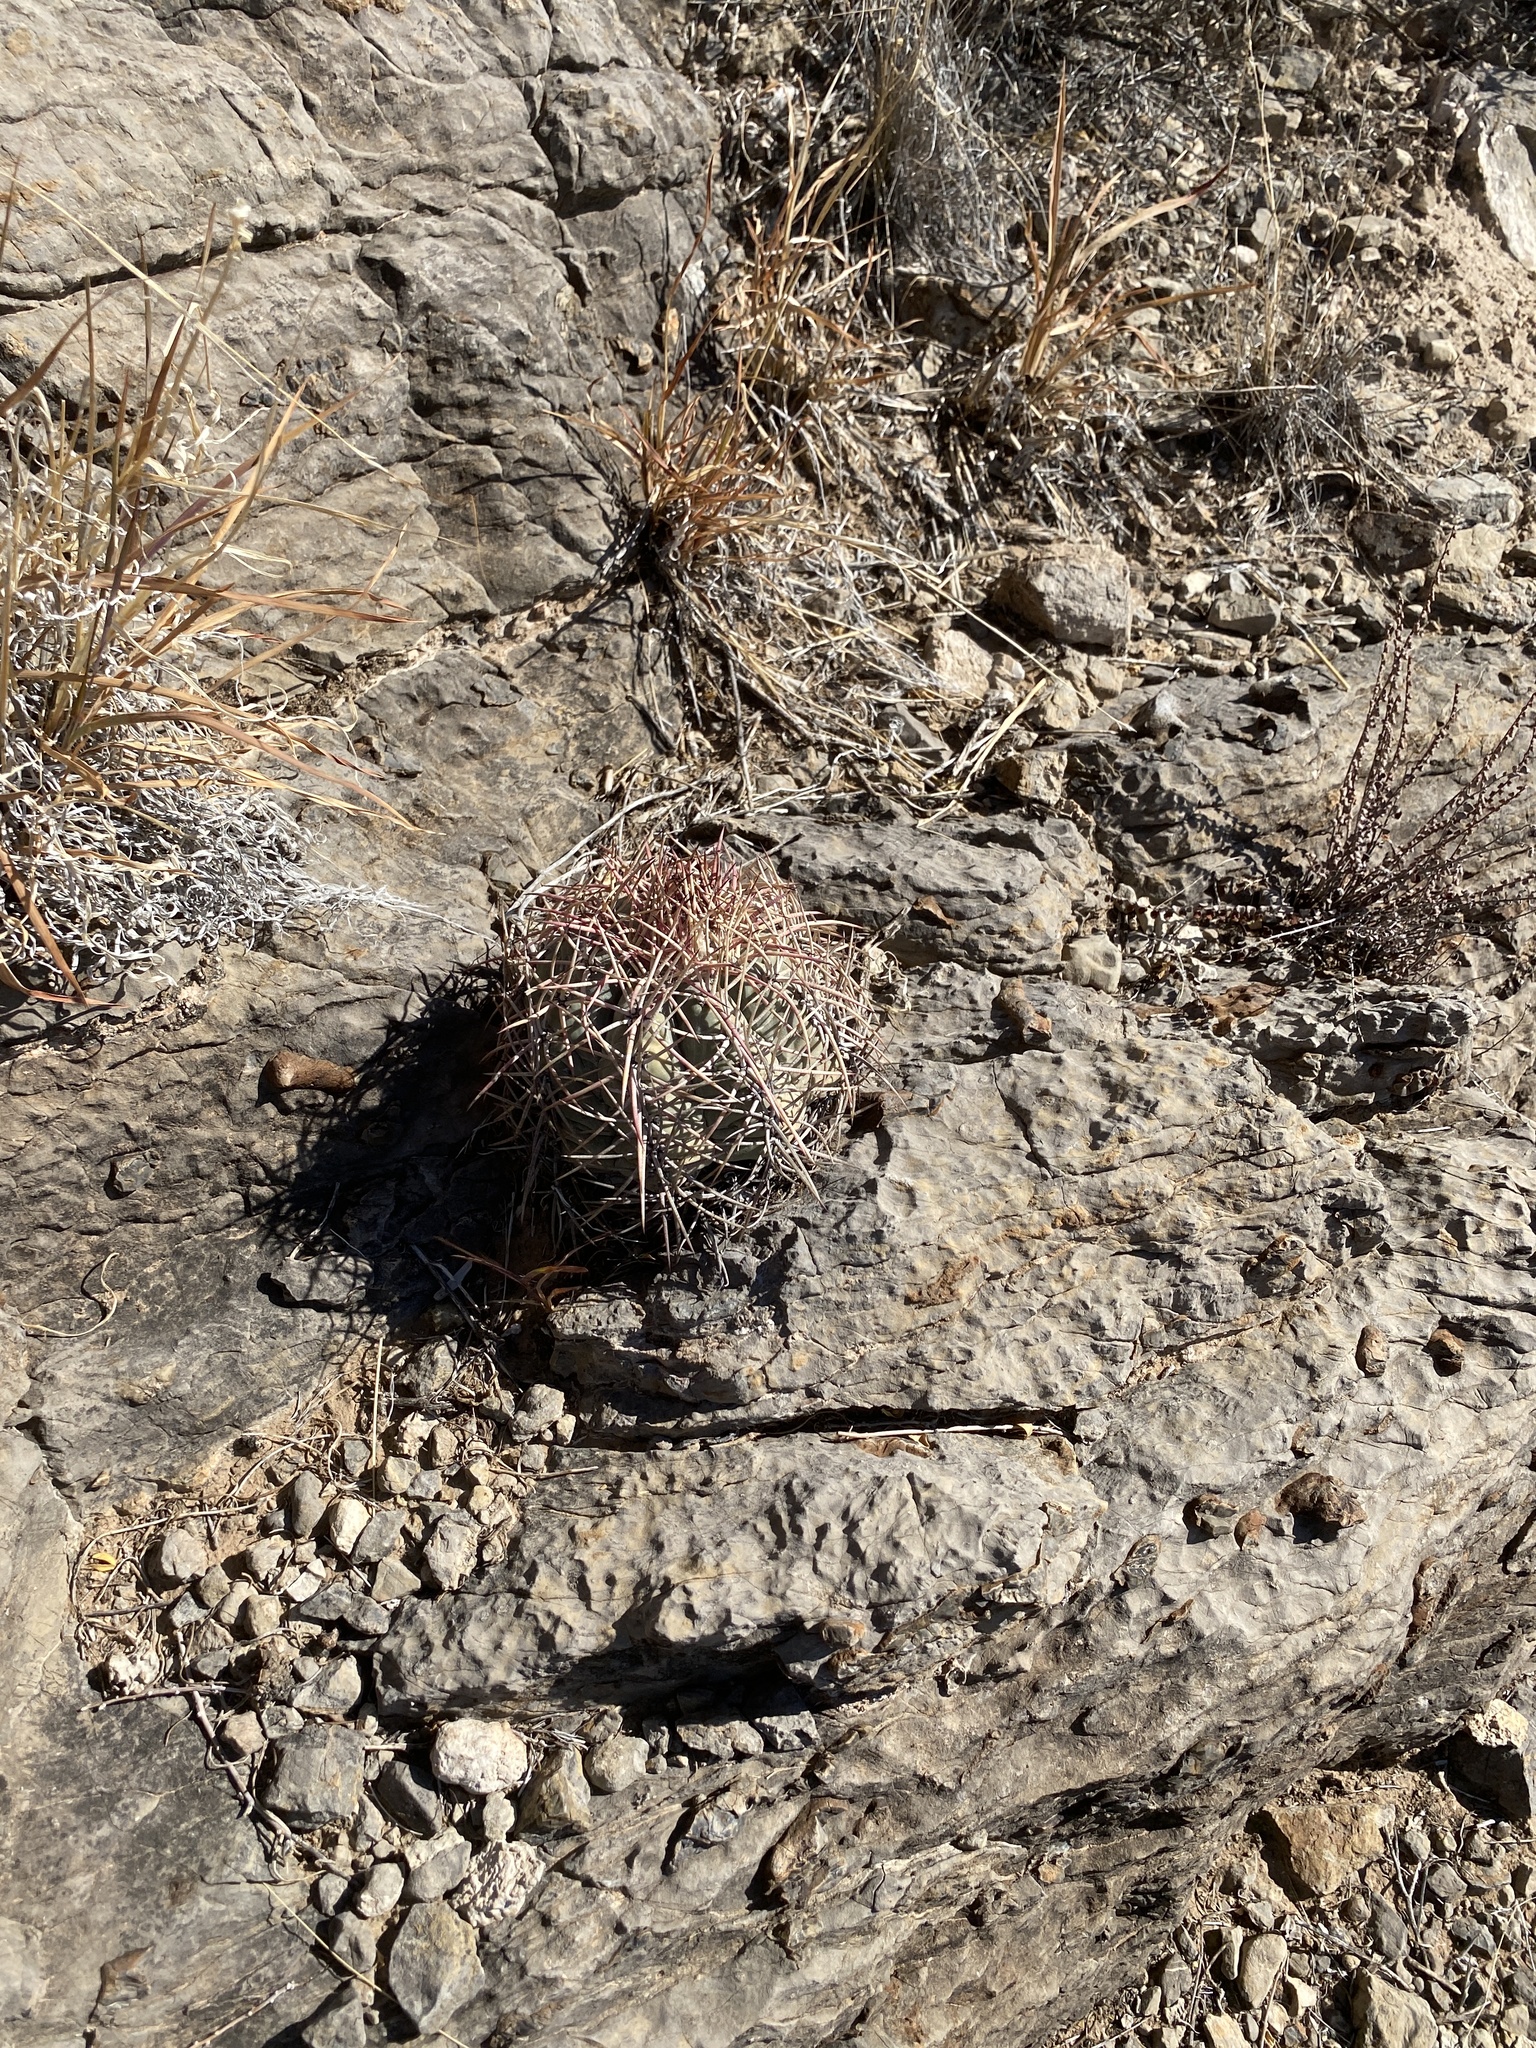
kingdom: Plantae
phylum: Tracheophyta
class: Magnoliopsida
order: Caryophyllales
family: Cactaceae
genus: Echinocactus
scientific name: Echinocactus horizonthalonius
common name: Devilshead
